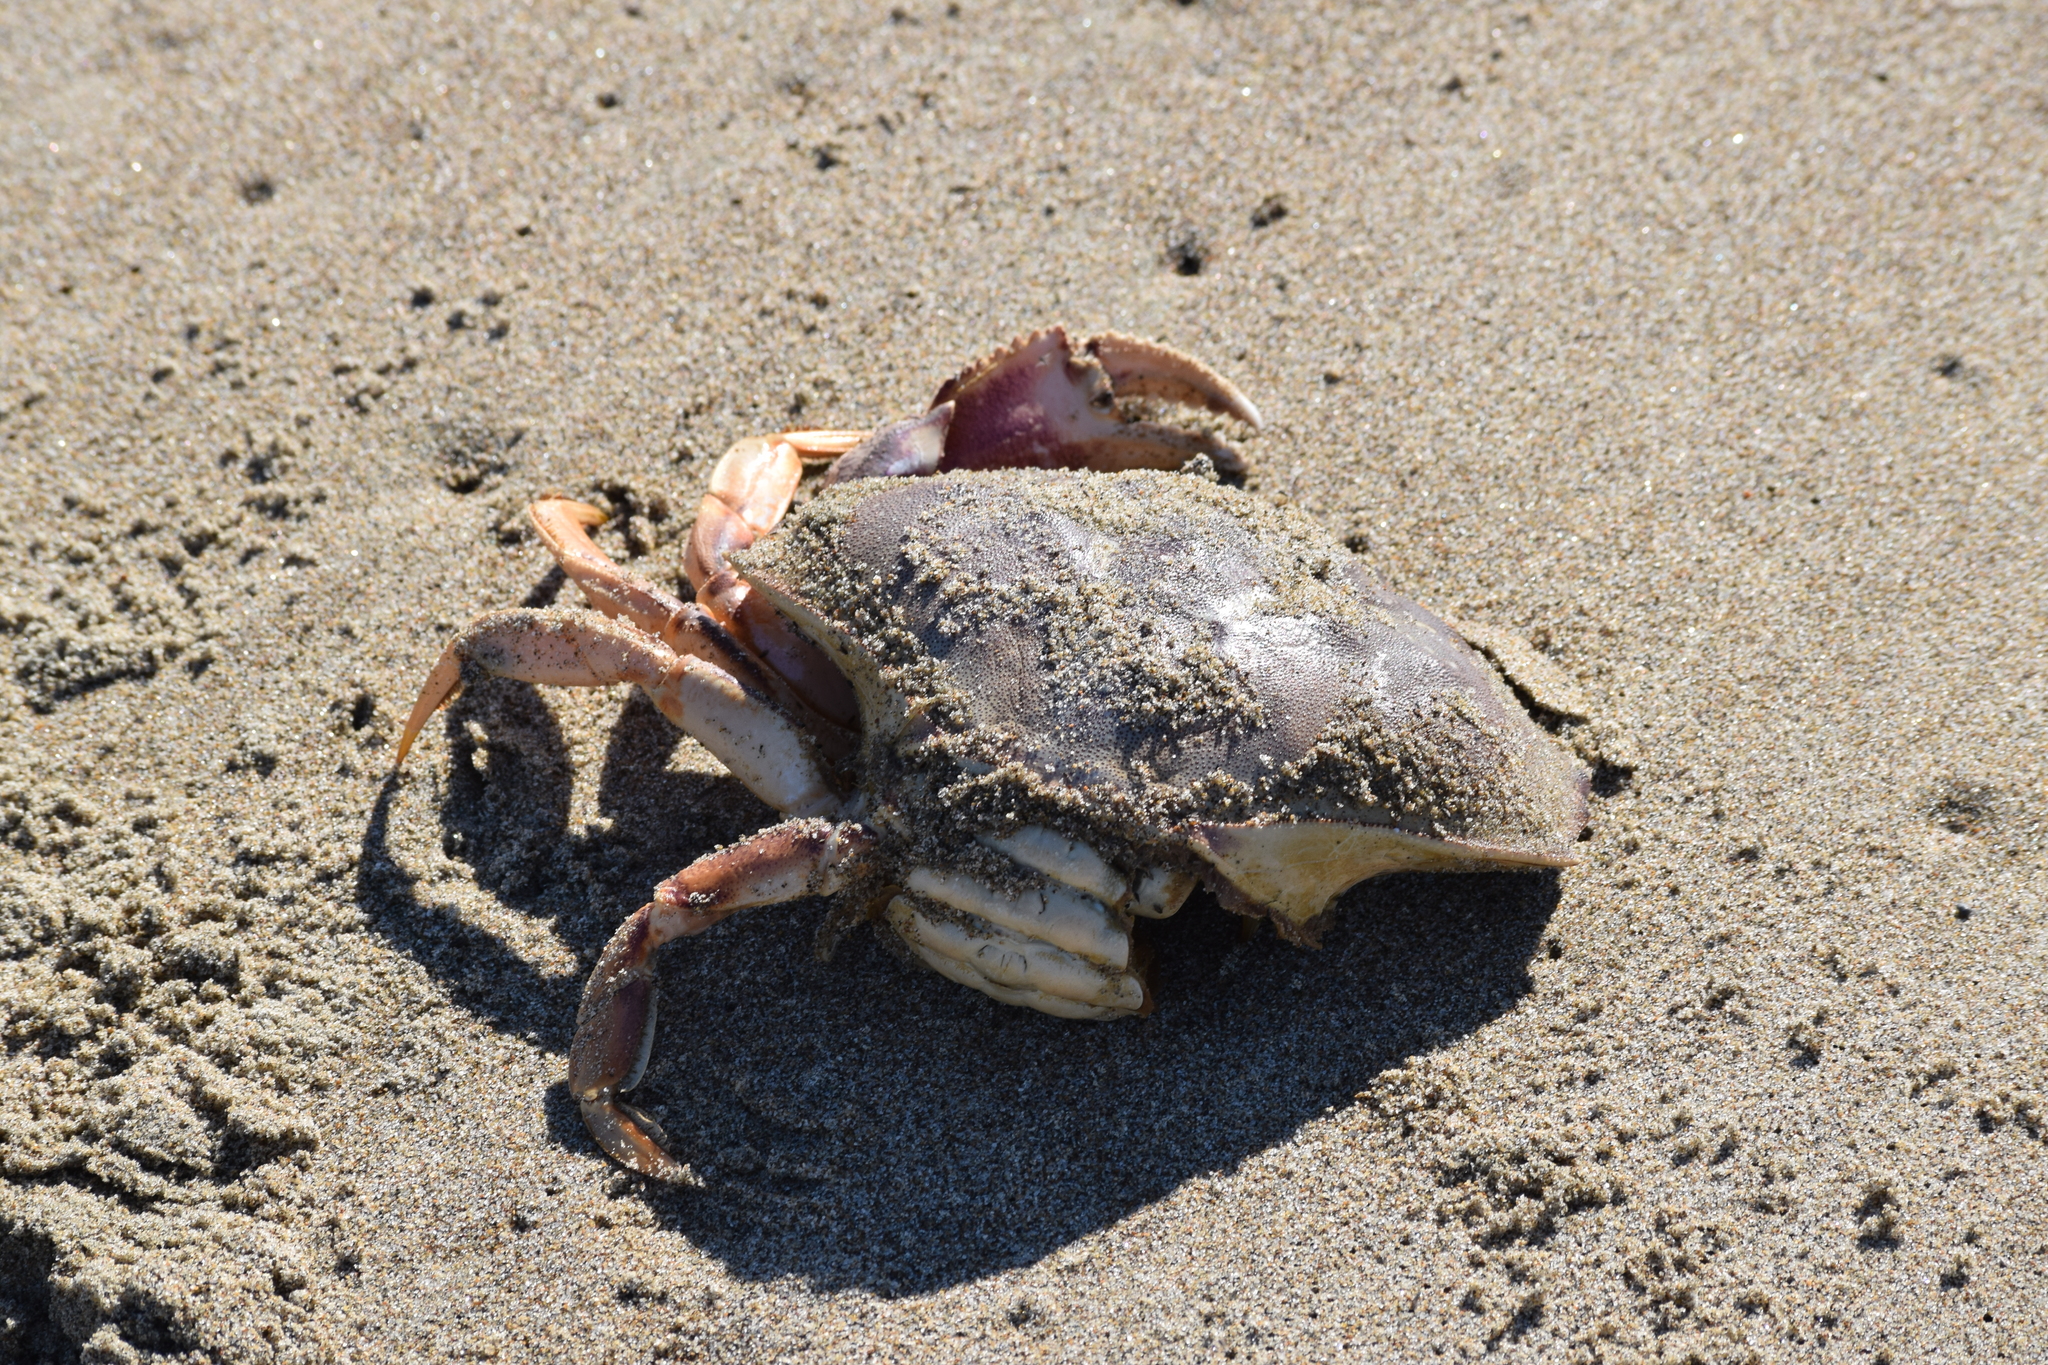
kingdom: Animalia
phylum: Arthropoda
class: Malacostraca
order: Decapoda
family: Cancridae
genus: Metacarcinus
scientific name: Metacarcinus magister
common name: Californian crab
